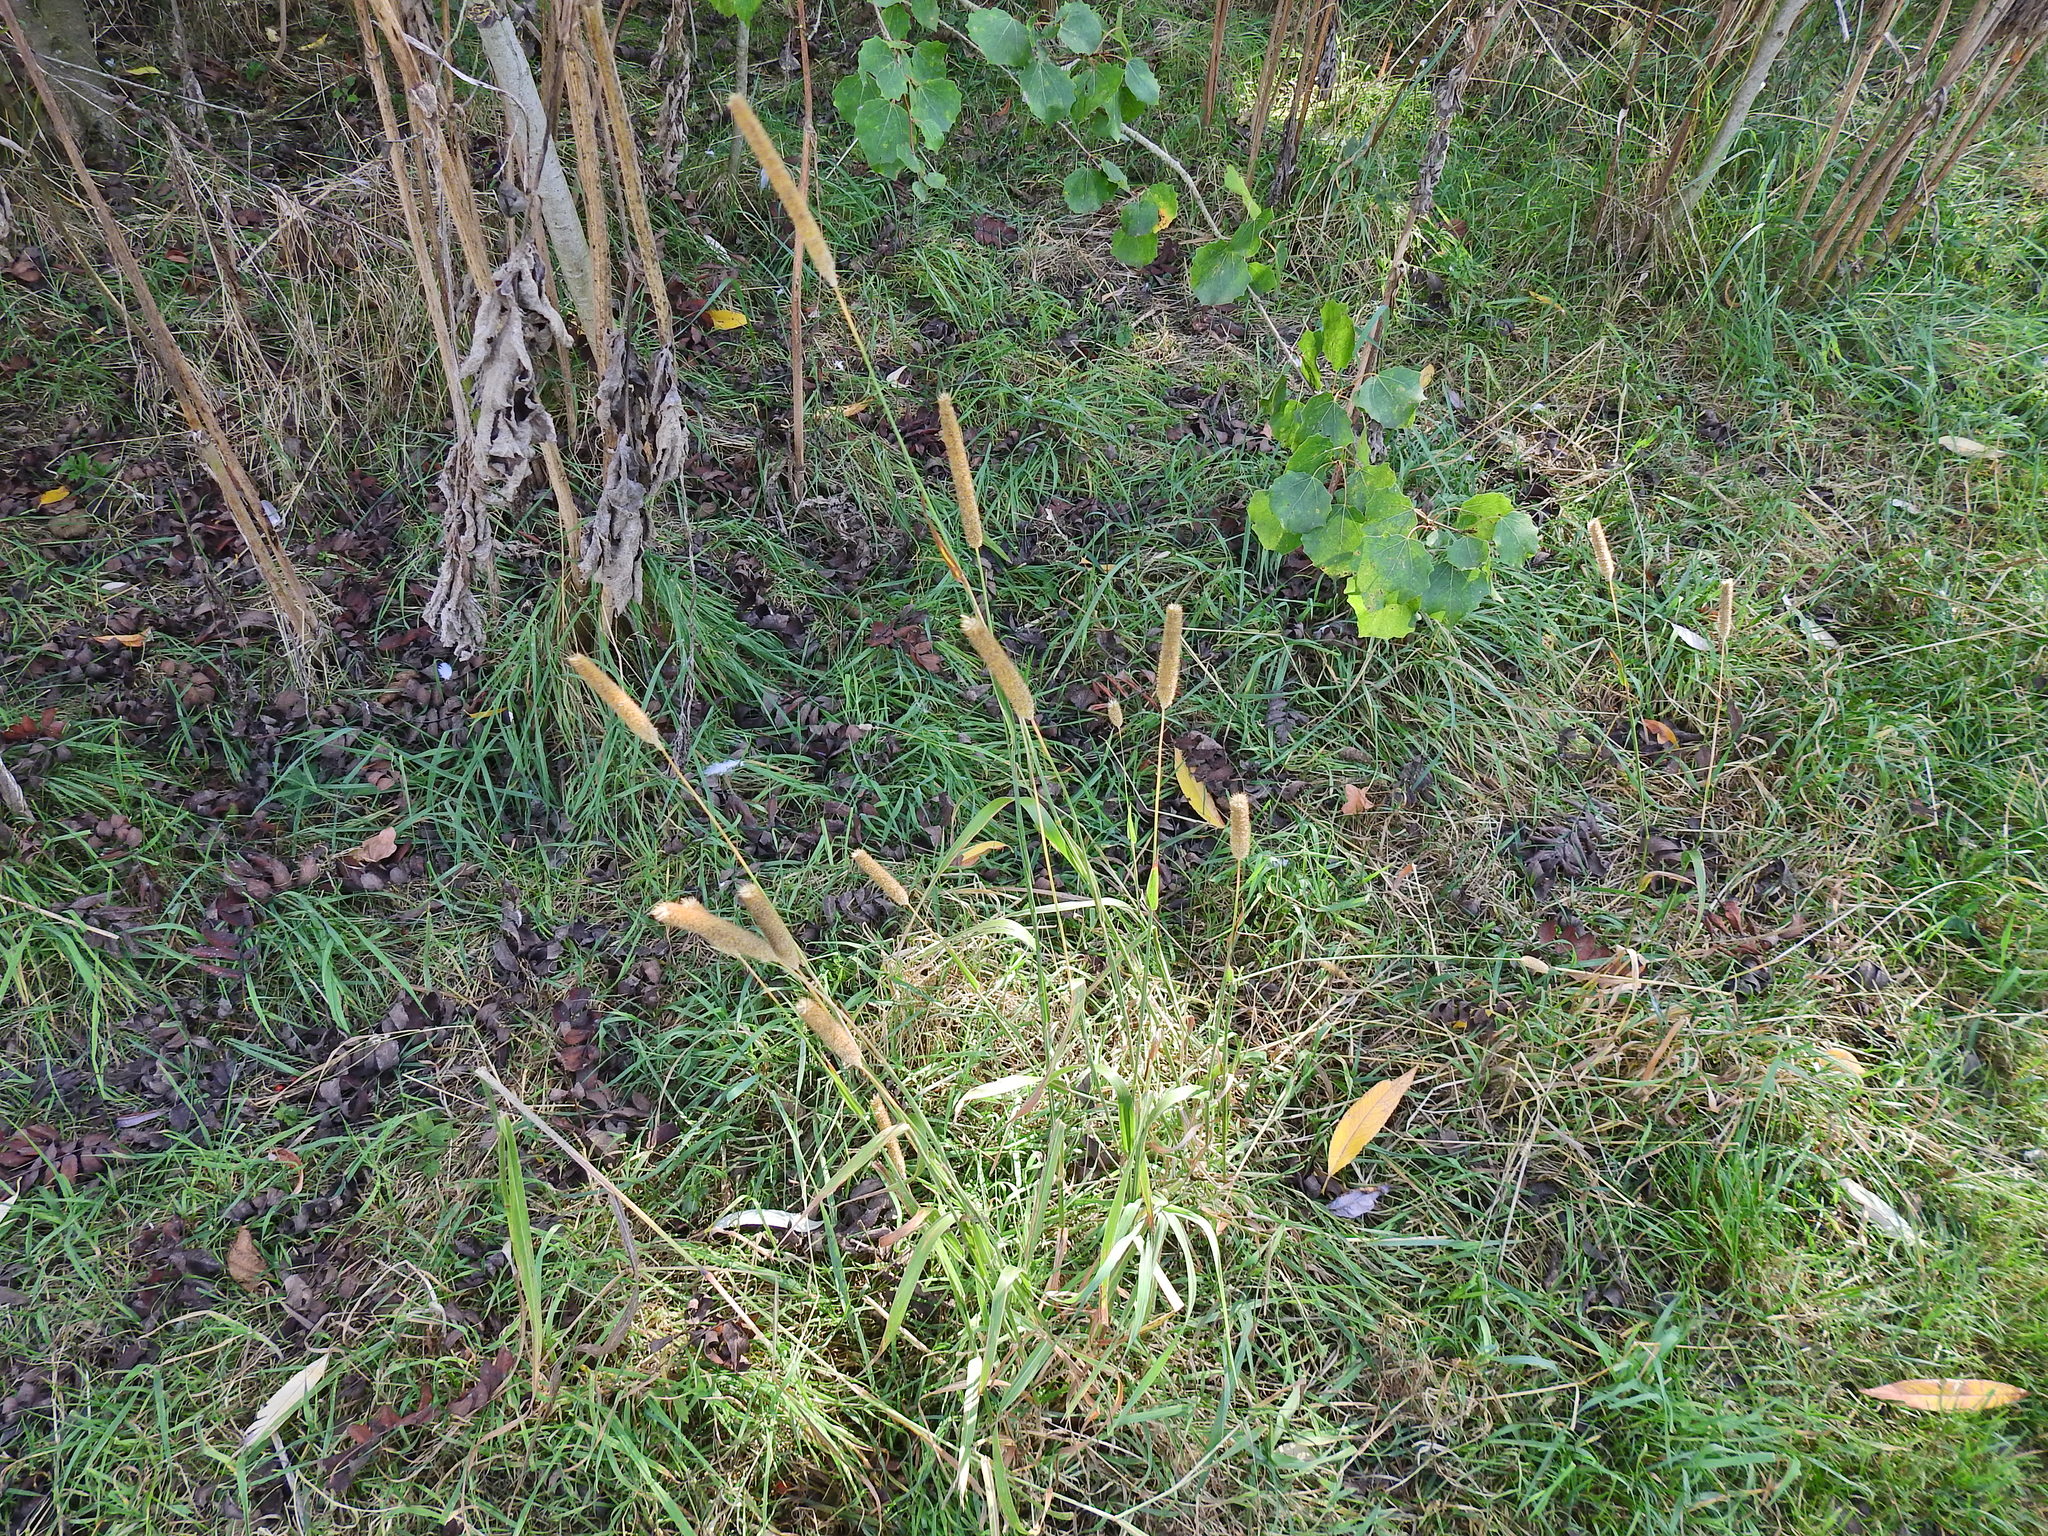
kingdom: Plantae
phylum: Tracheophyta
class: Liliopsida
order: Poales
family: Poaceae
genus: Phleum
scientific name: Phleum pratense
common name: Timothy grass
